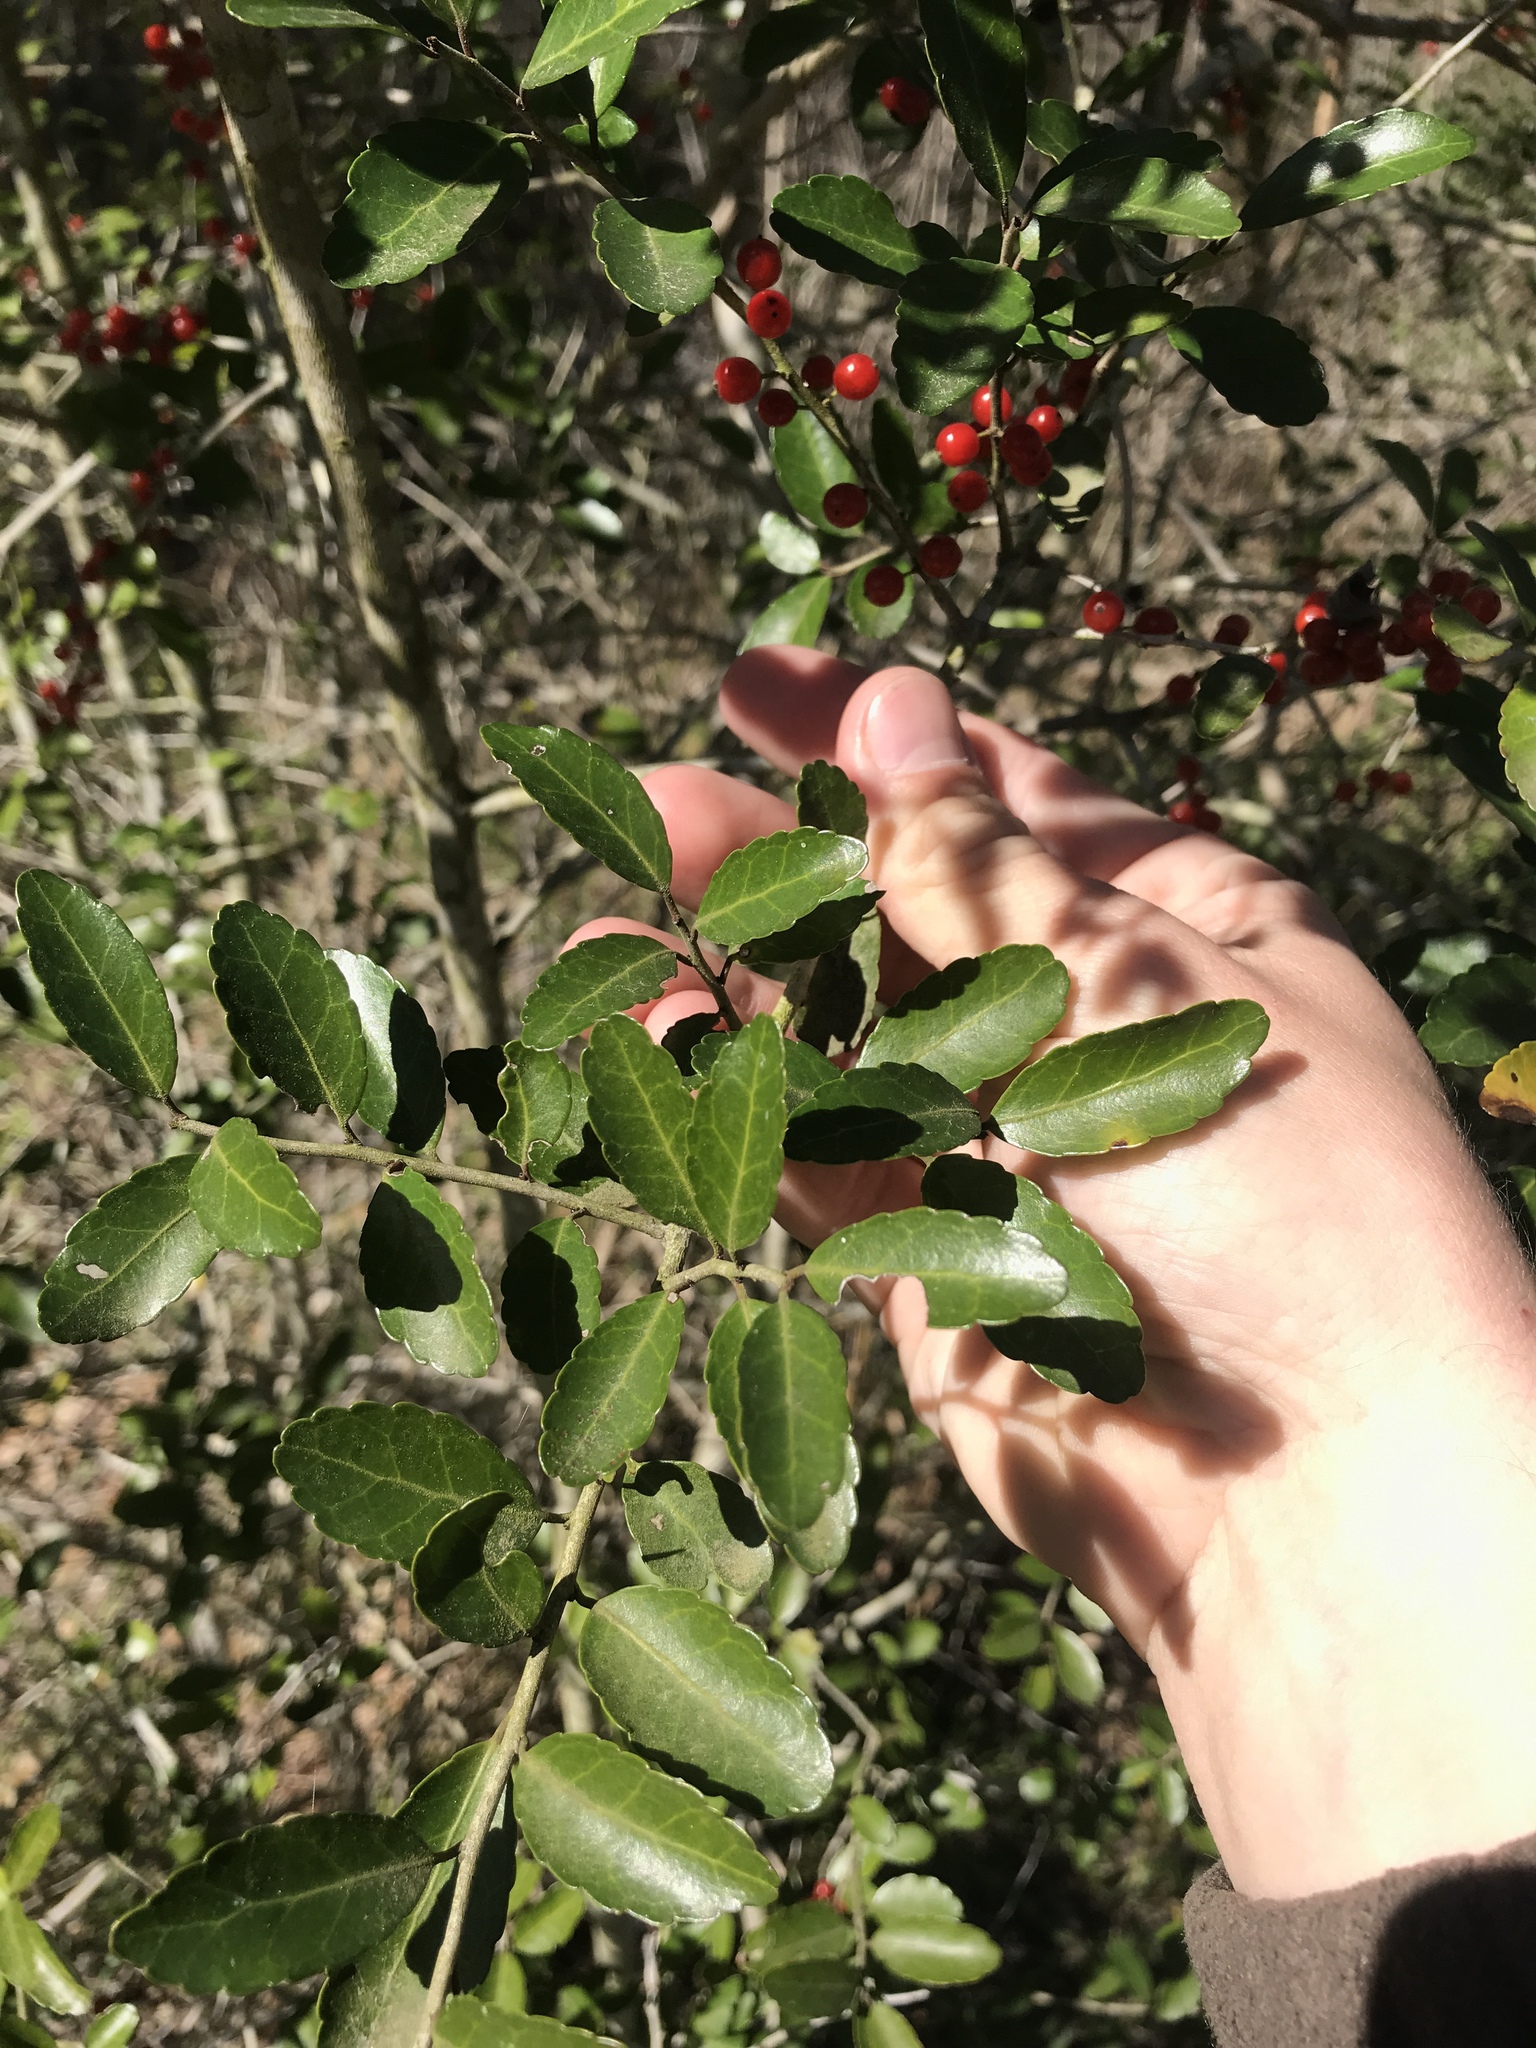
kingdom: Plantae
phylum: Tracheophyta
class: Magnoliopsida
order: Aquifoliales
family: Aquifoliaceae
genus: Ilex
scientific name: Ilex vomitoria
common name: Yaupon holly
